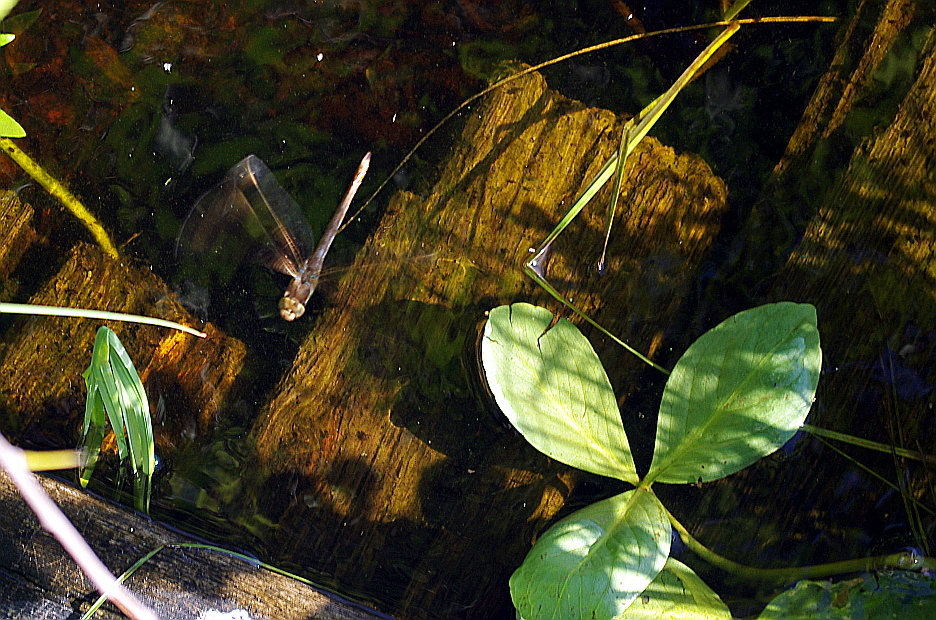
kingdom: Animalia
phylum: Arthropoda
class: Insecta
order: Odonata
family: Aeshnidae
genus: Aeshna
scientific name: Aeshna grandis
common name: Brown hawker
